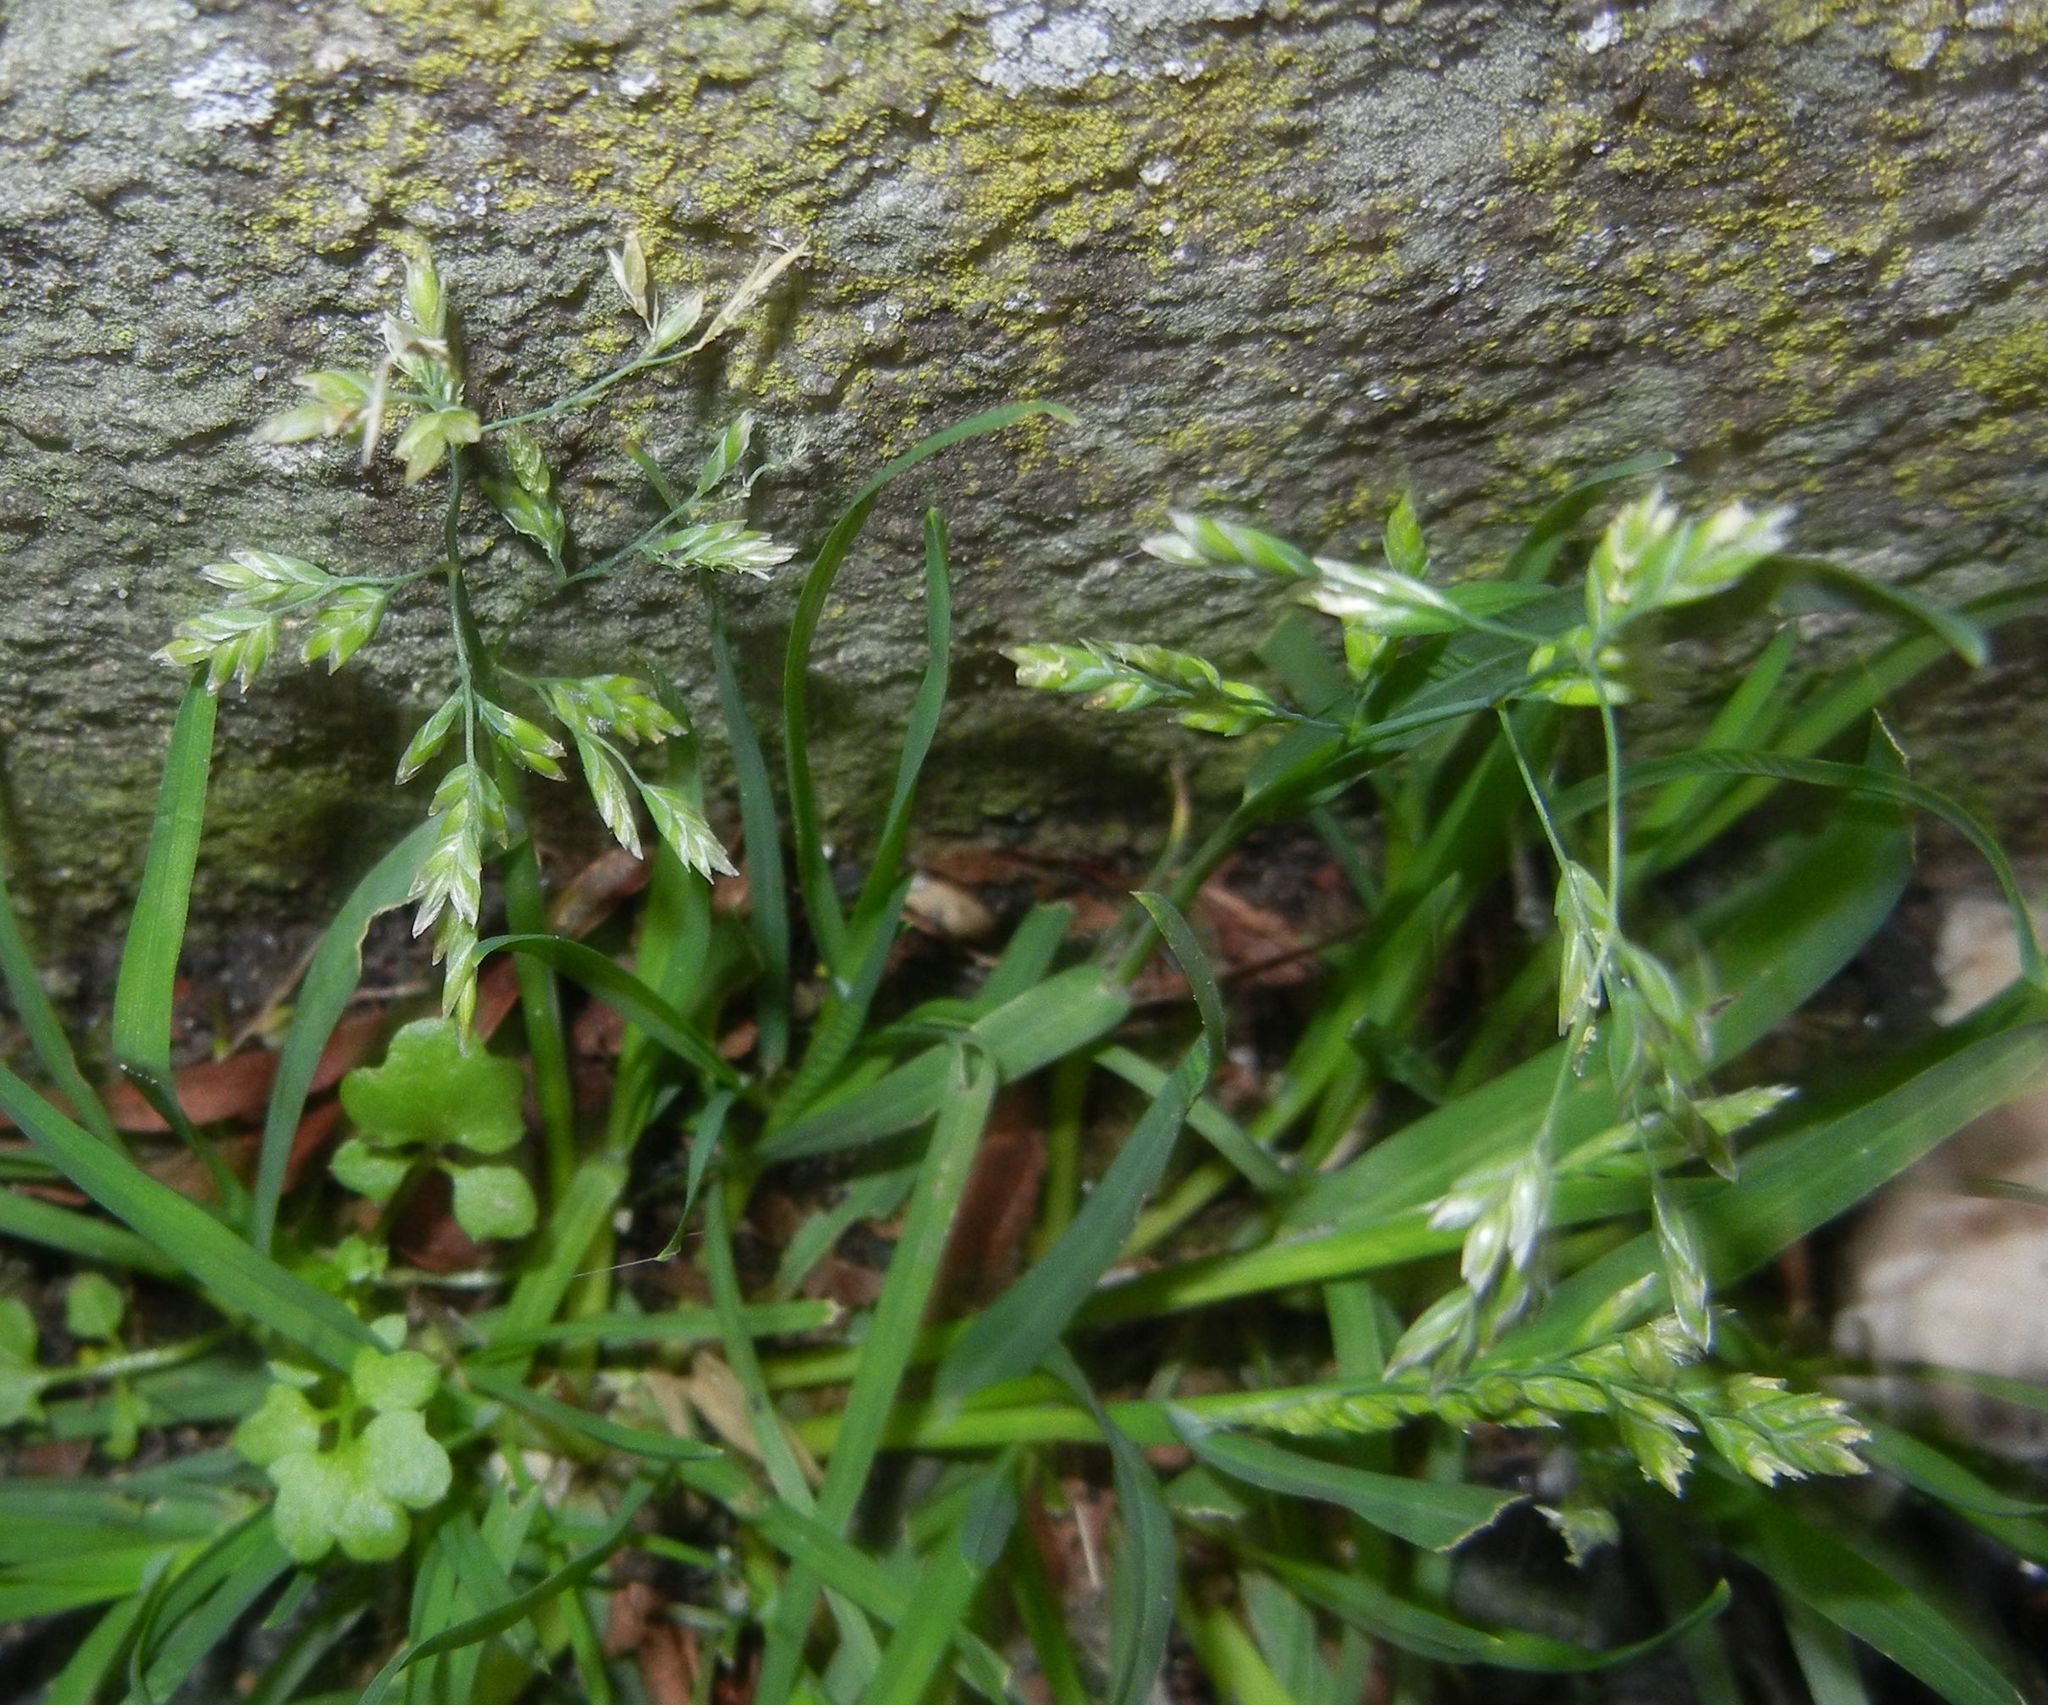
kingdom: Plantae
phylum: Tracheophyta
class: Liliopsida
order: Poales
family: Poaceae
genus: Poa
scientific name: Poa annua
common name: Annual bluegrass
